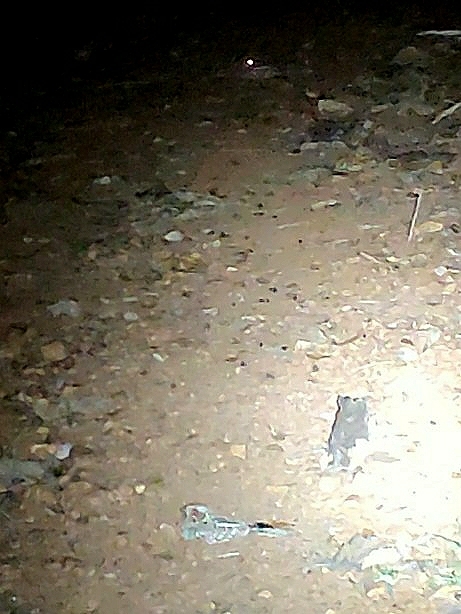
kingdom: Animalia
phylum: Chordata
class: Aves
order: Caprimulgiformes
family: Caprimulgidae
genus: Caprimulgus
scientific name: Caprimulgus asiaticus
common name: Indian nightjar
